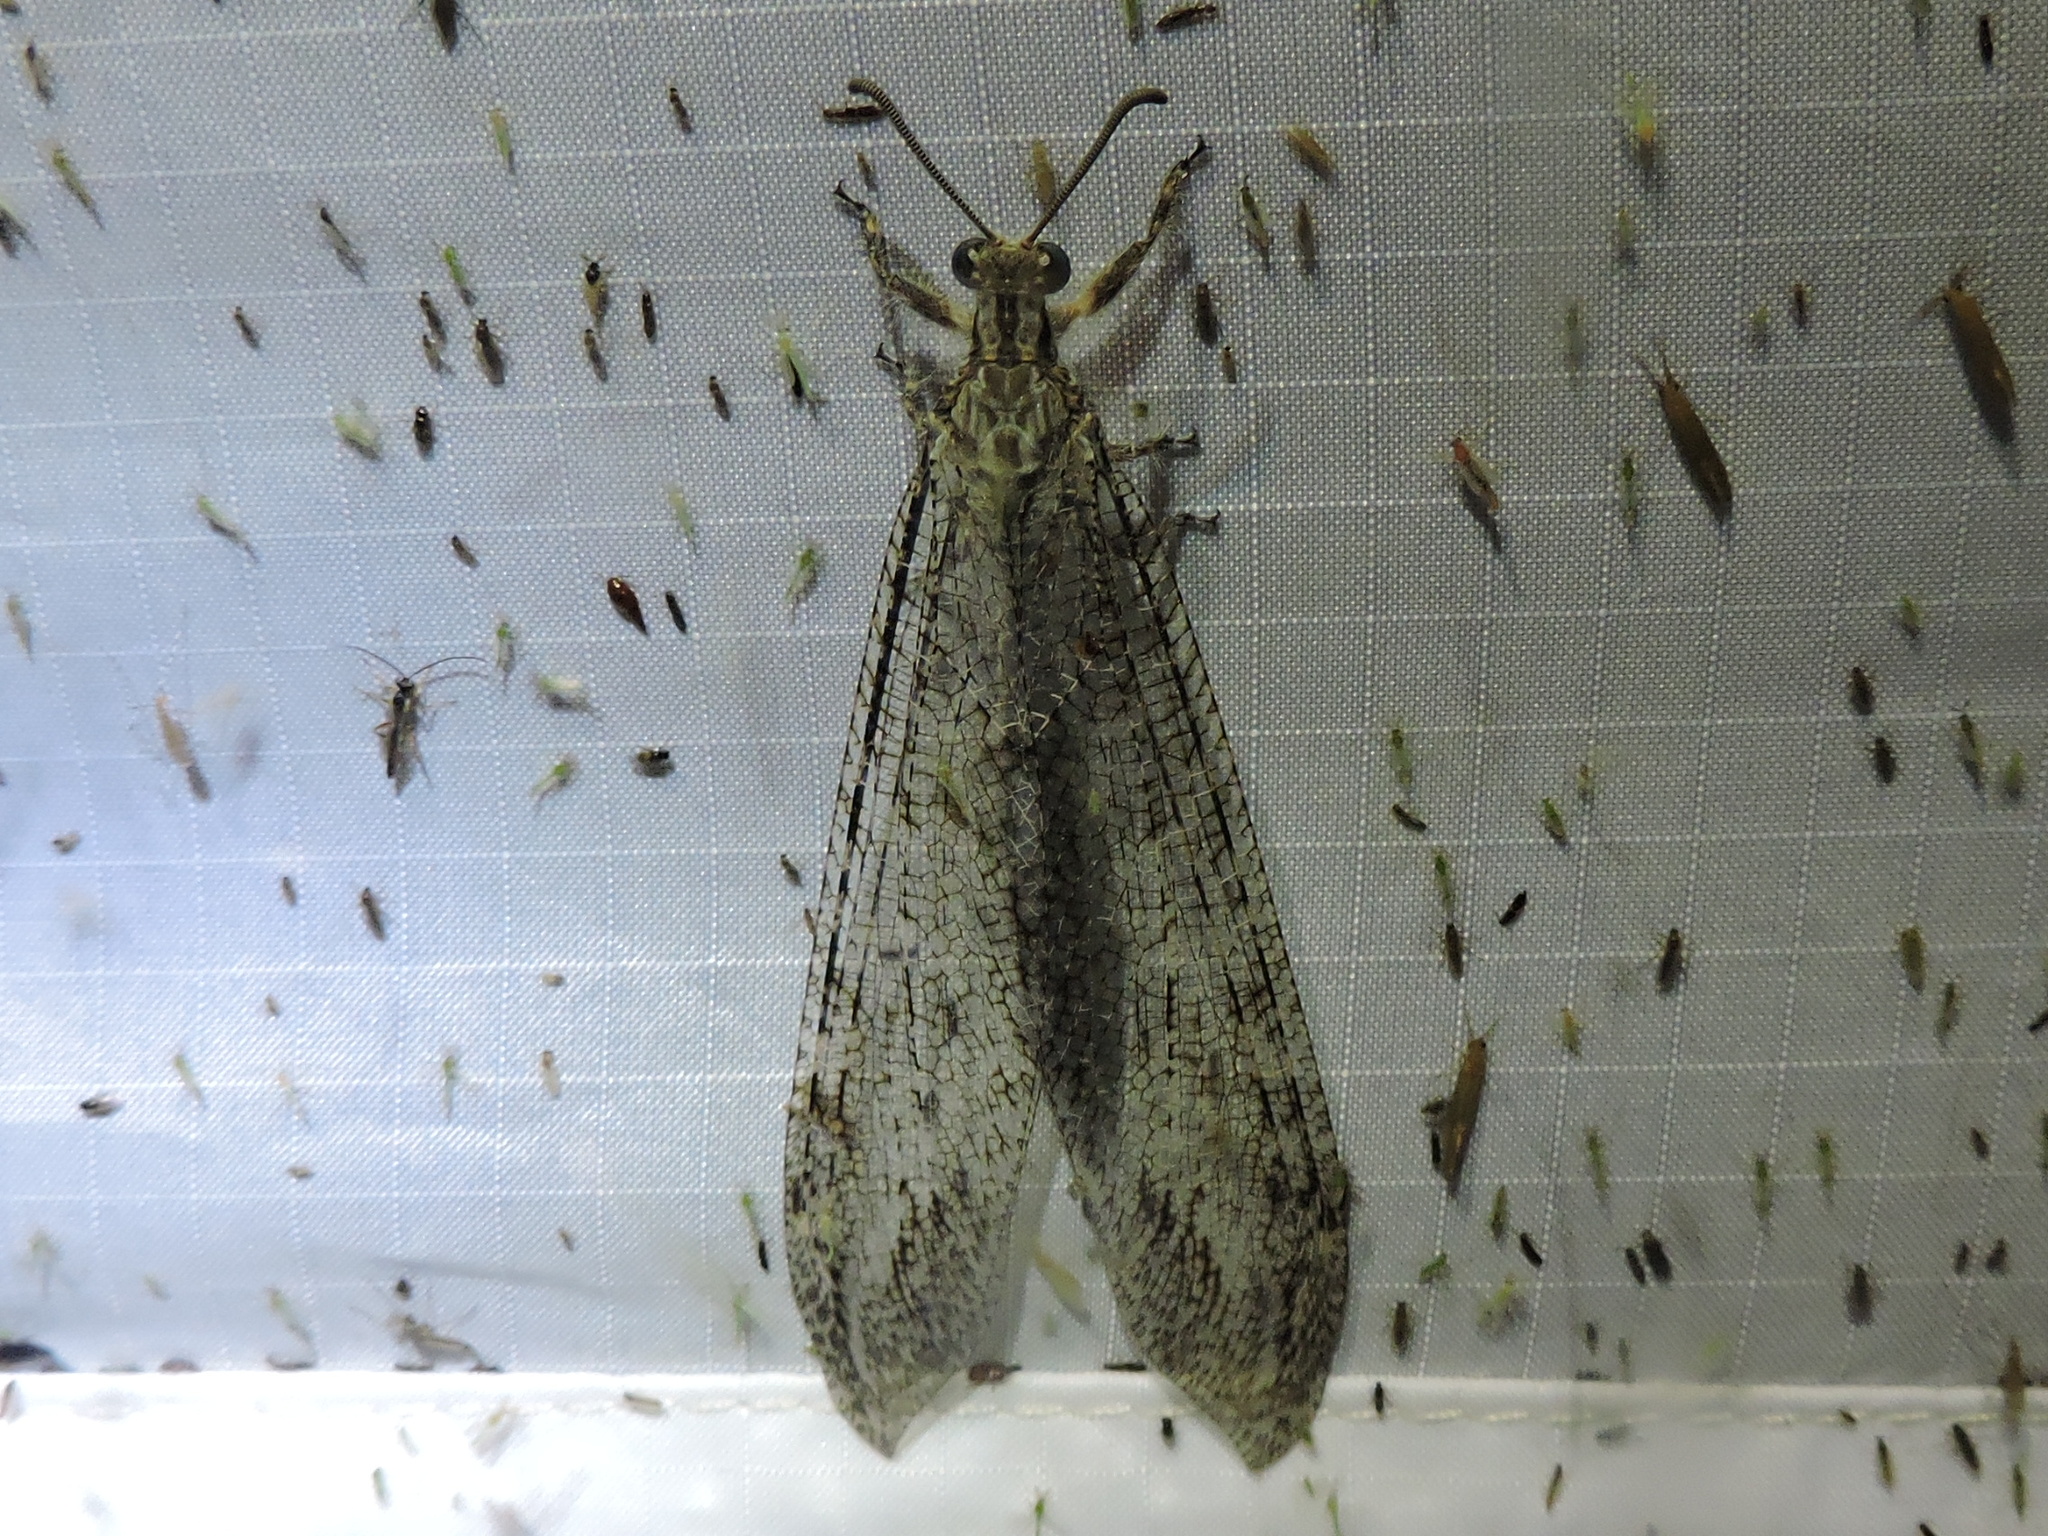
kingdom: Animalia
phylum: Arthropoda
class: Insecta
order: Neuroptera
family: Myrmeleontidae
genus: Vella
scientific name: Vella fallax
